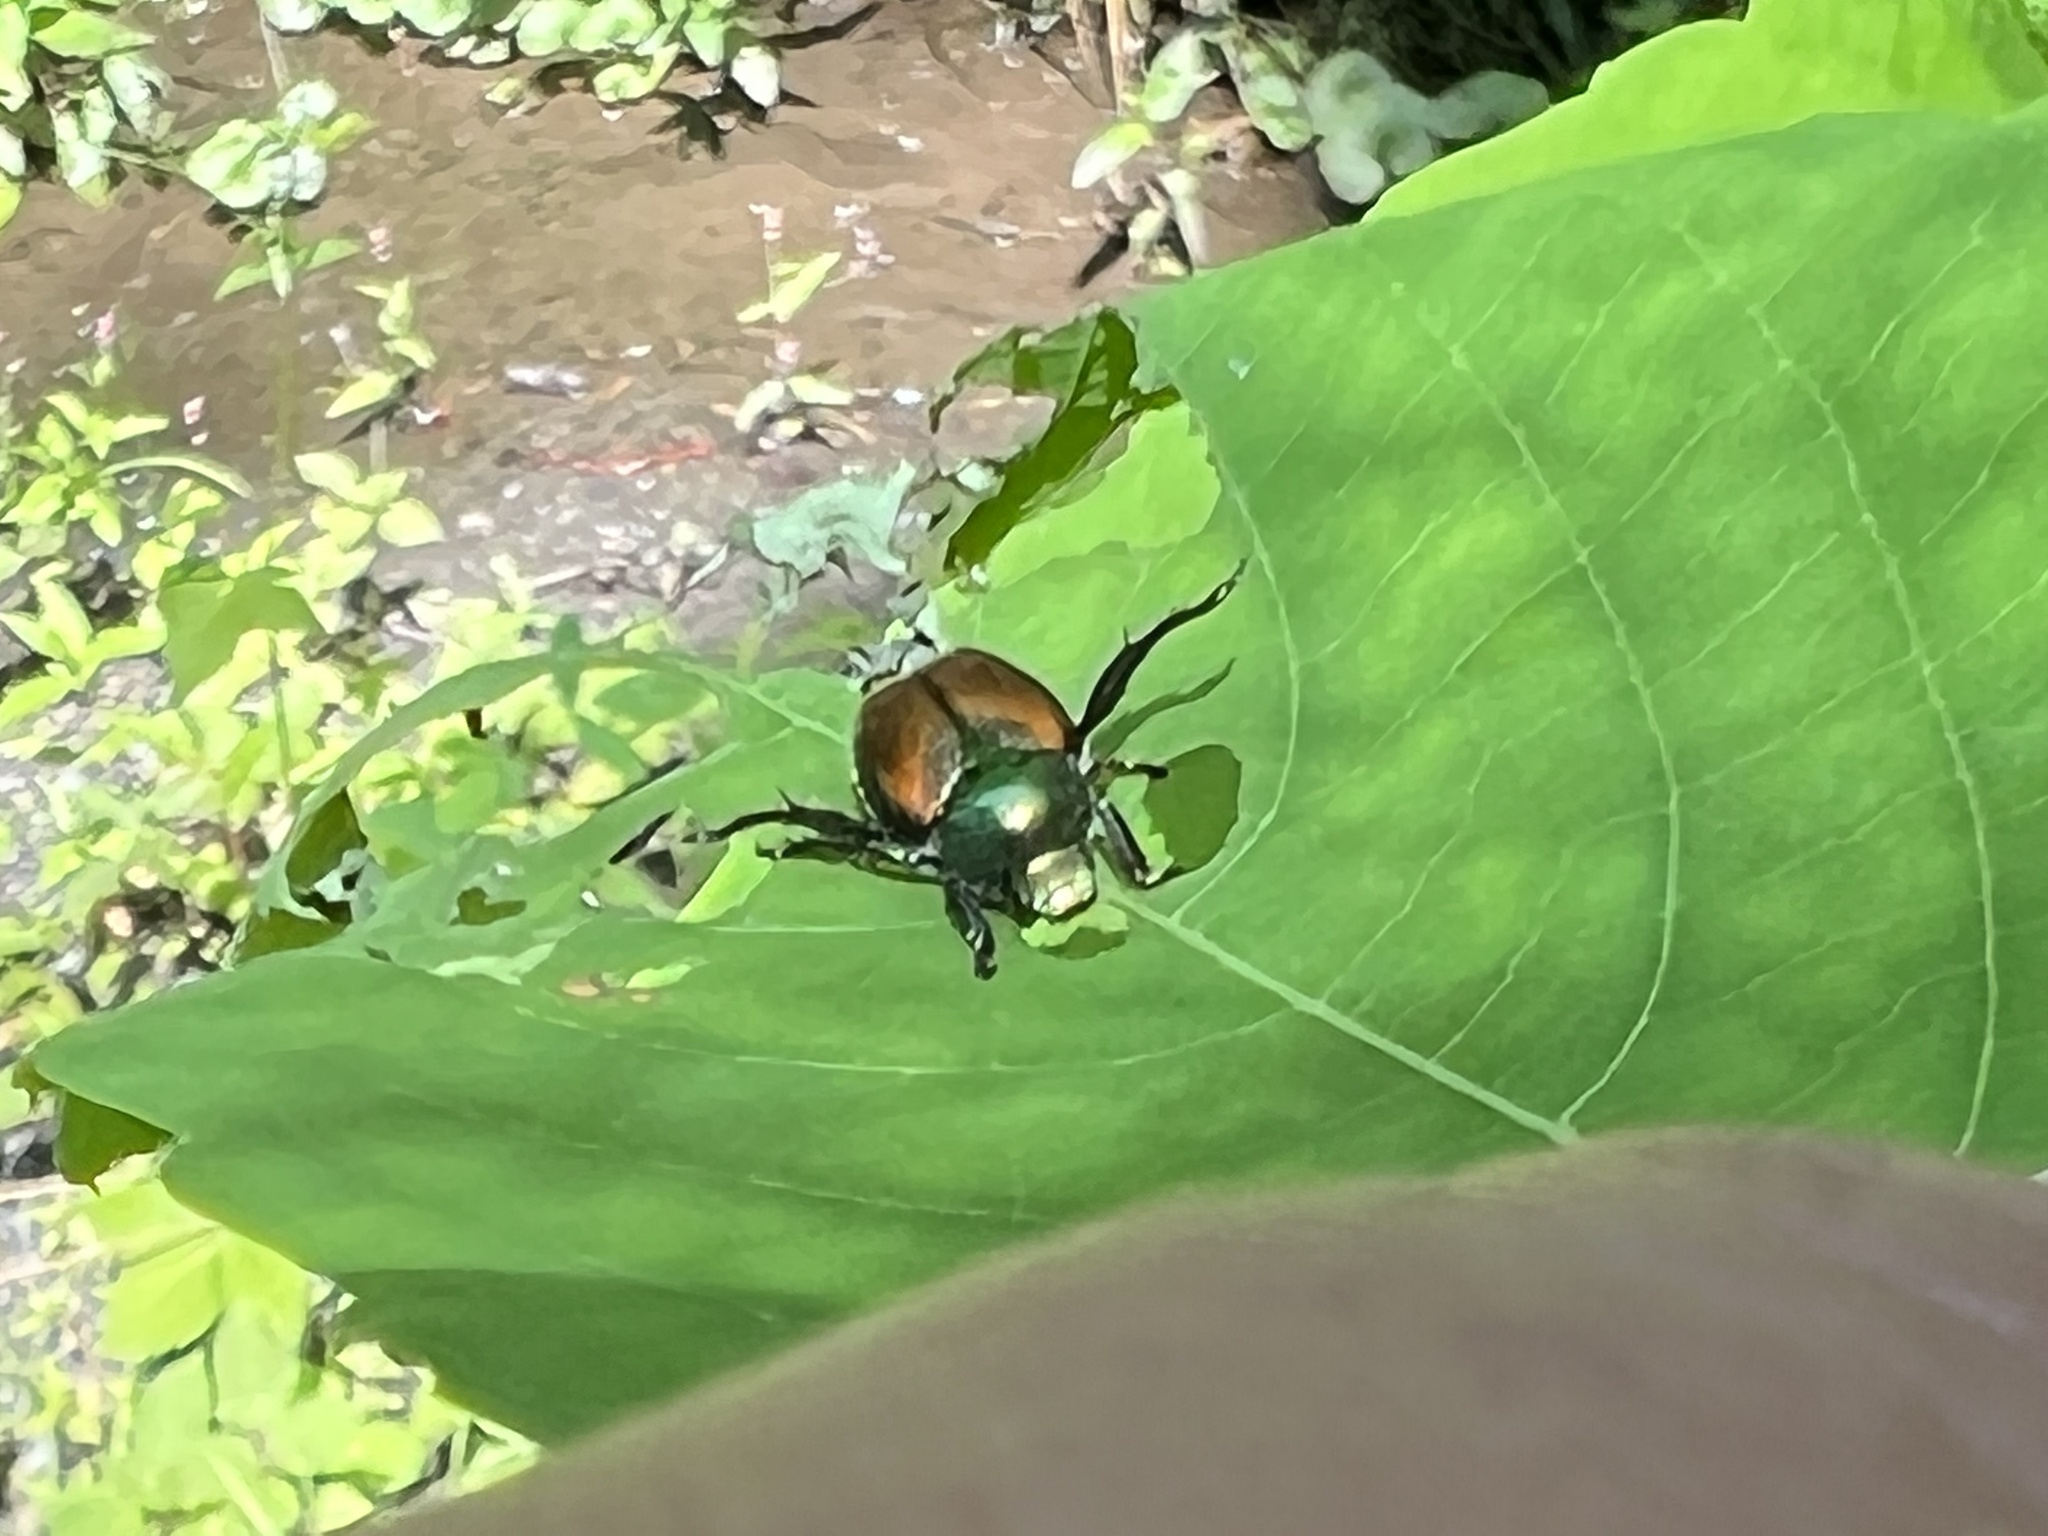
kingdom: Animalia
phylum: Arthropoda
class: Insecta
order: Coleoptera
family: Scarabaeidae
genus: Popillia
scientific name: Popillia japonica
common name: Japanese beetle
